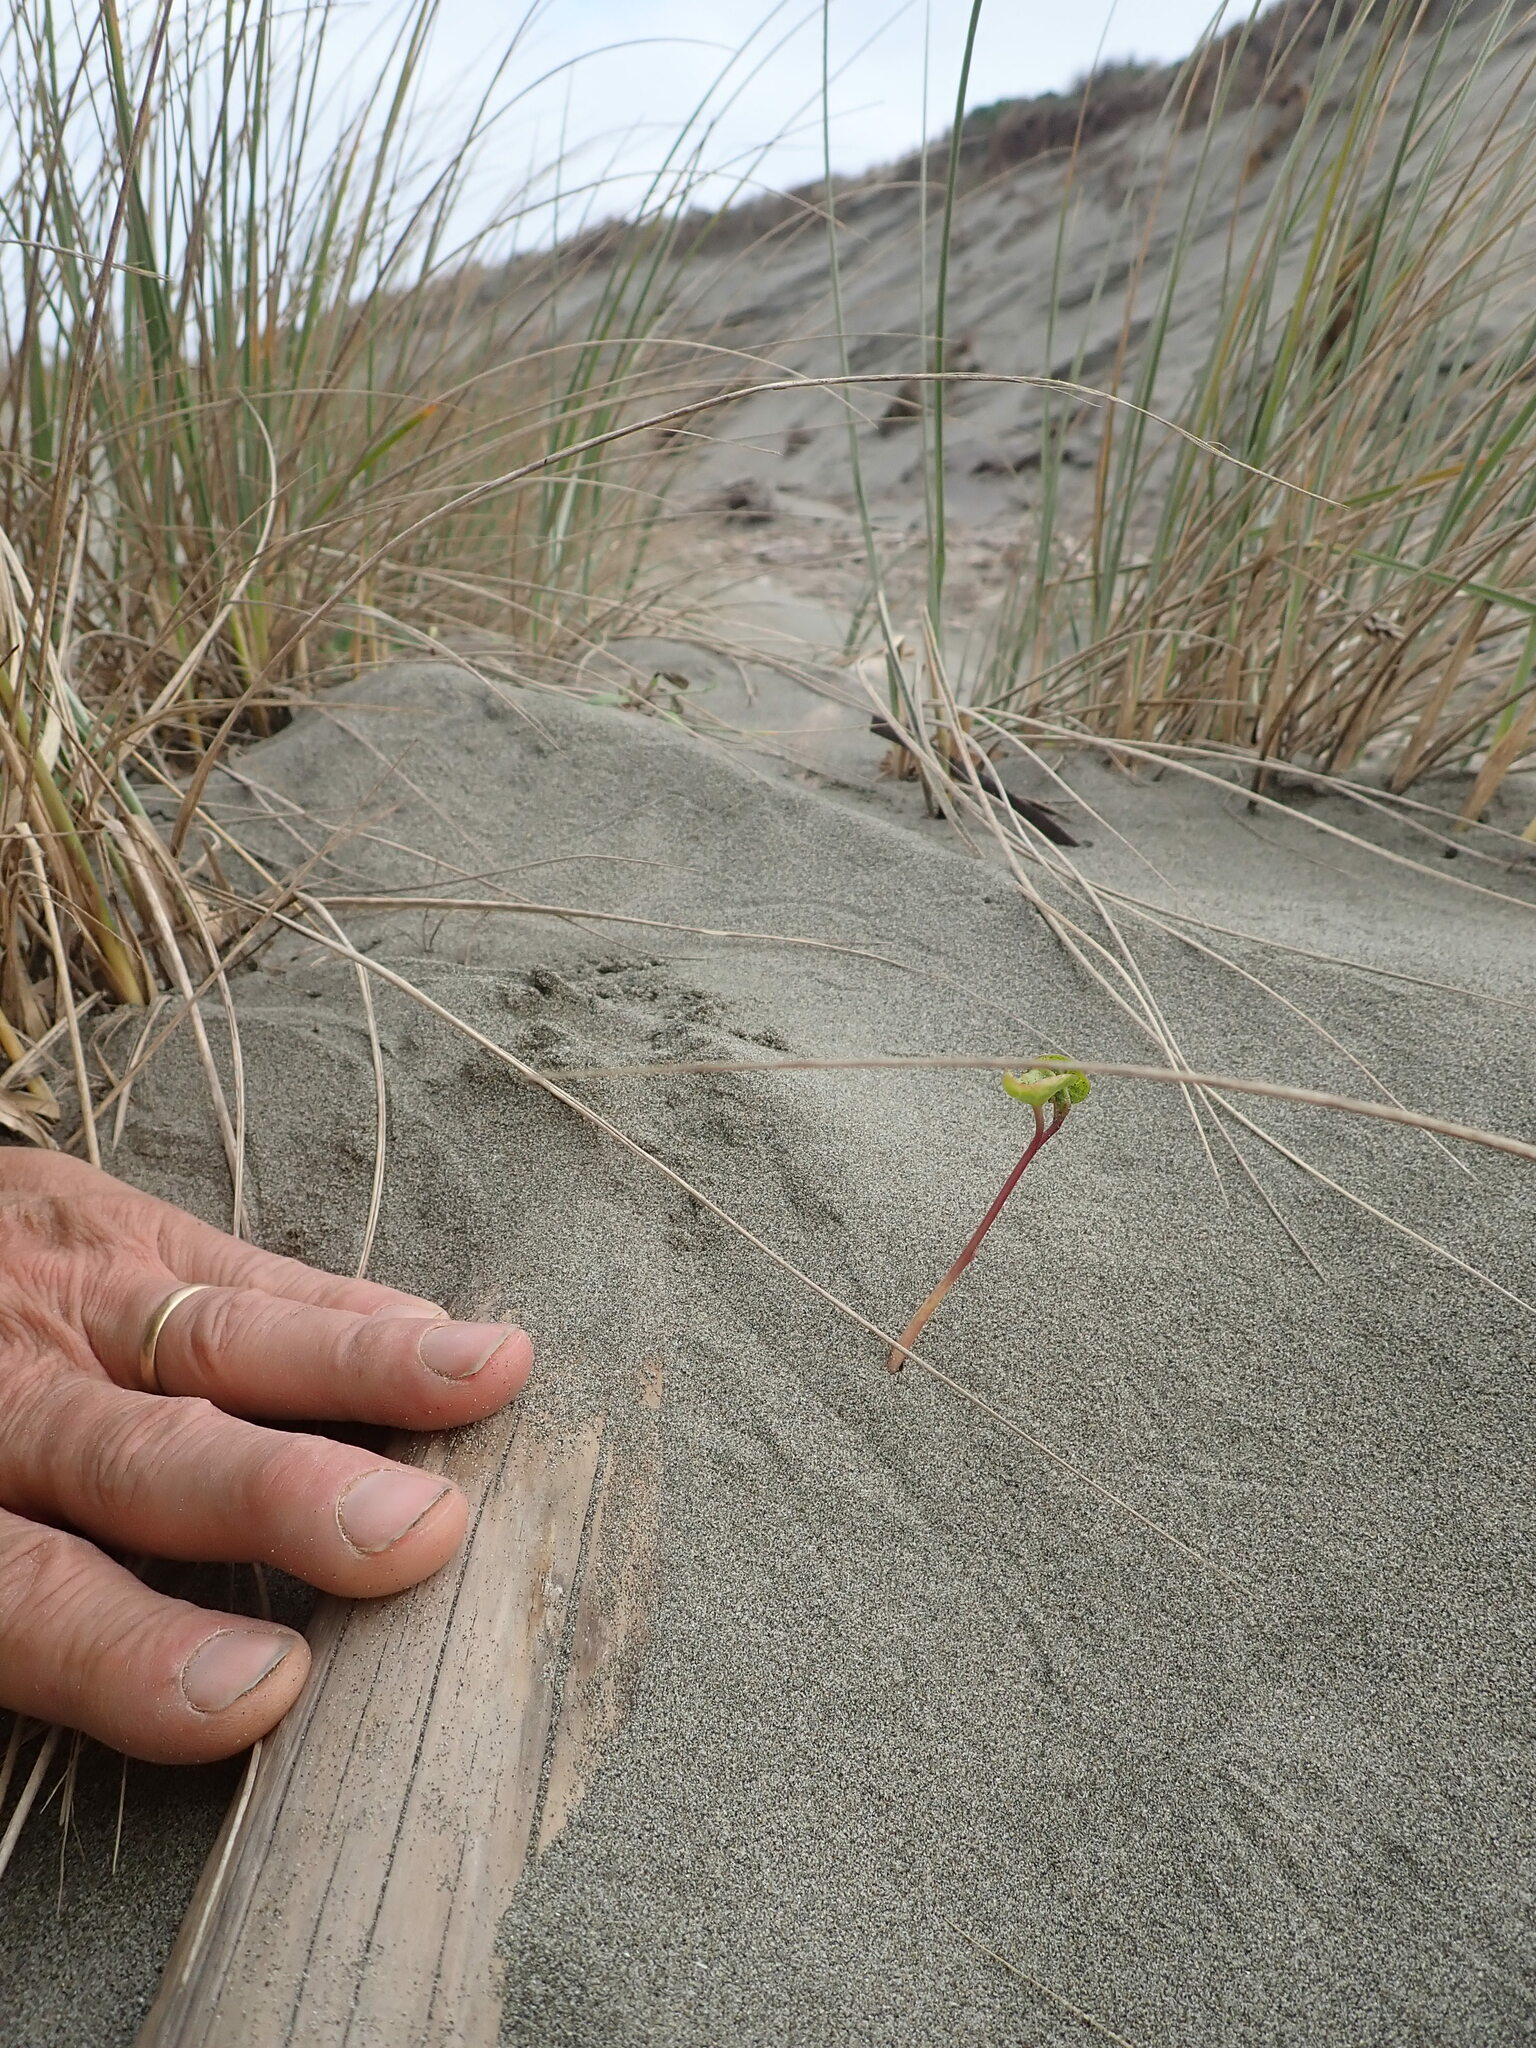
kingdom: Plantae
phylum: Tracheophyta
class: Magnoliopsida
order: Solanales
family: Convolvulaceae
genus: Calystegia
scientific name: Calystegia soldanella
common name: Sea bindweed
